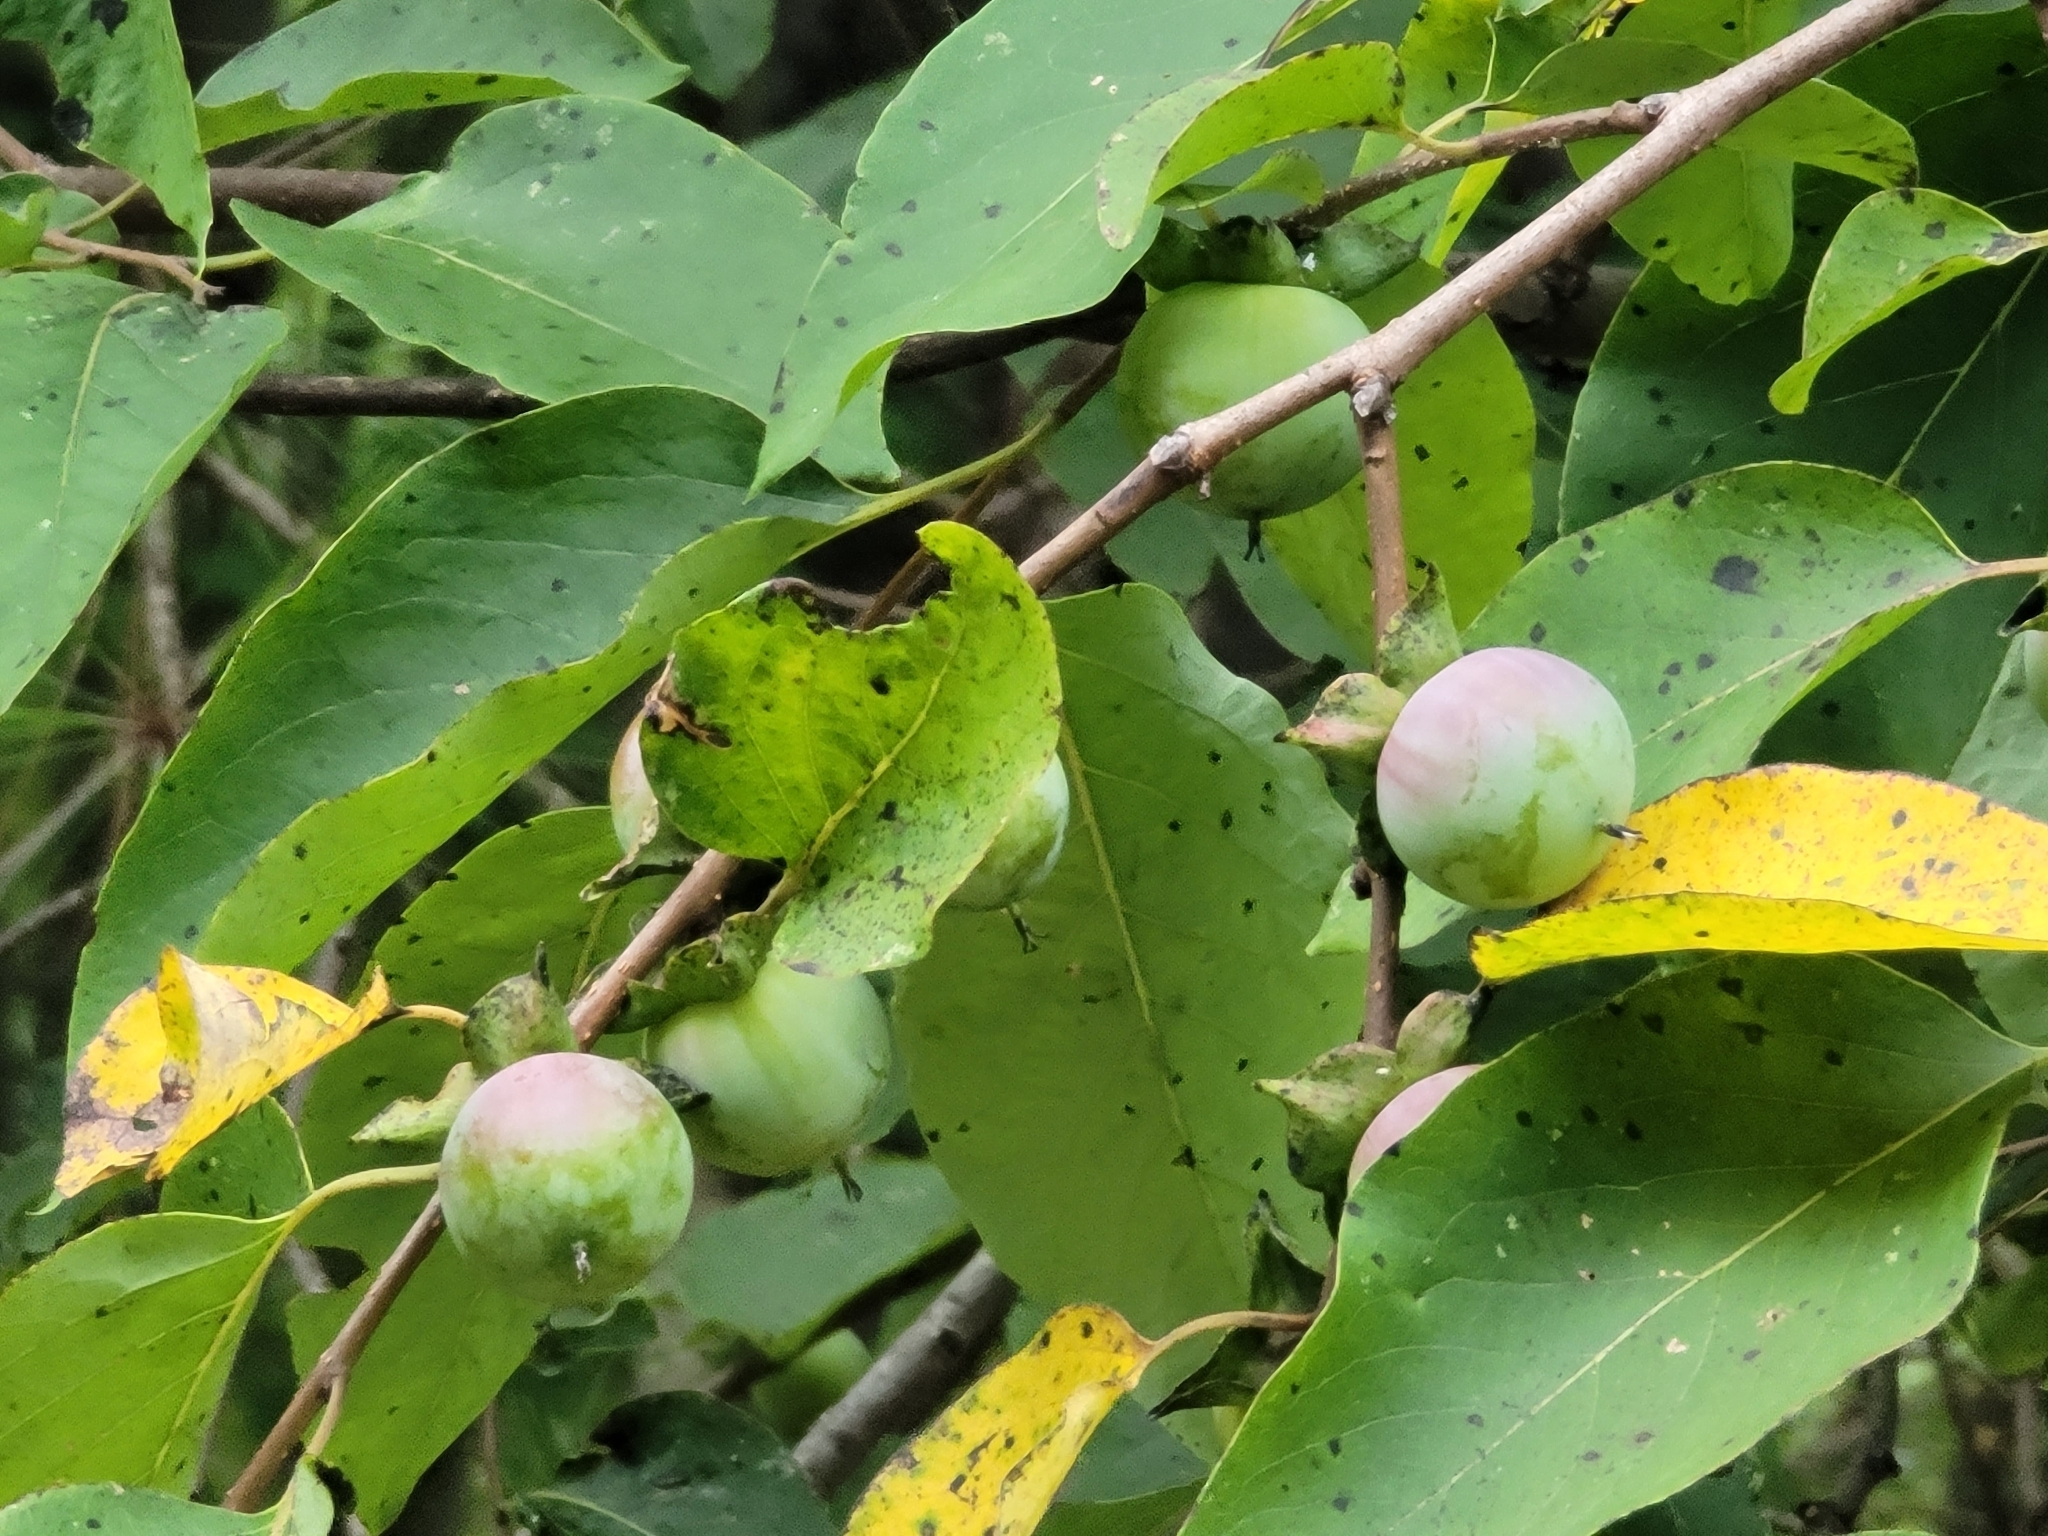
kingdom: Plantae
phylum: Tracheophyta
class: Magnoliopsida
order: Ericales
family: Ebenaceae
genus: Diospyros
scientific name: Diospyros virginiana
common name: Persimmon
